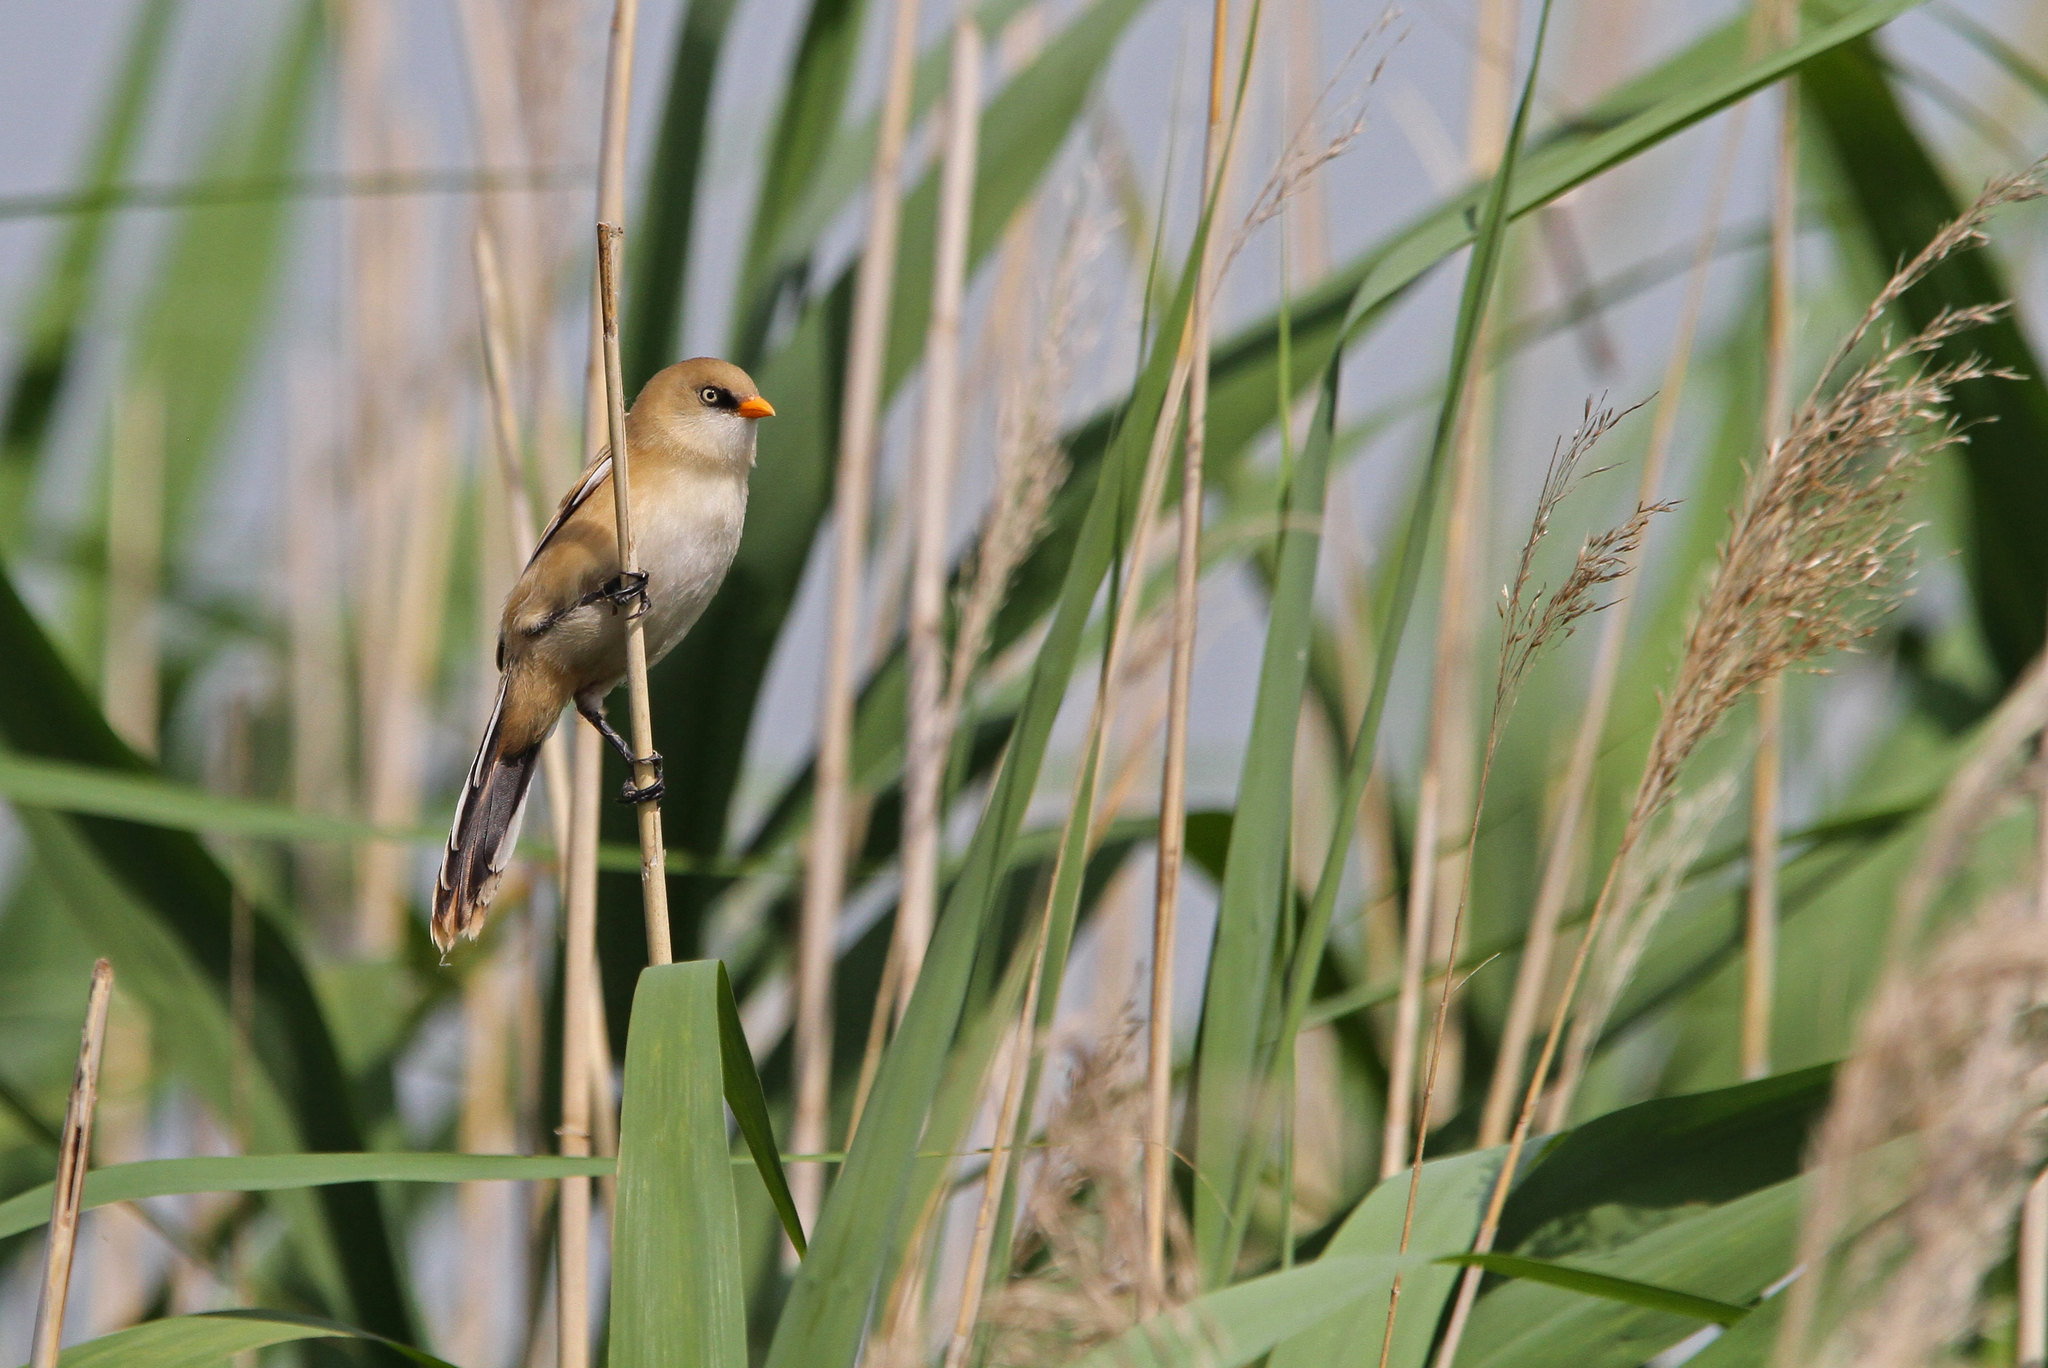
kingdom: Animalia
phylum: Chordata
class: Aves
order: Passeriformes
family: Panuridae
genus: Panurus
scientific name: Panurus biarmicus
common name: Bearded reedling
